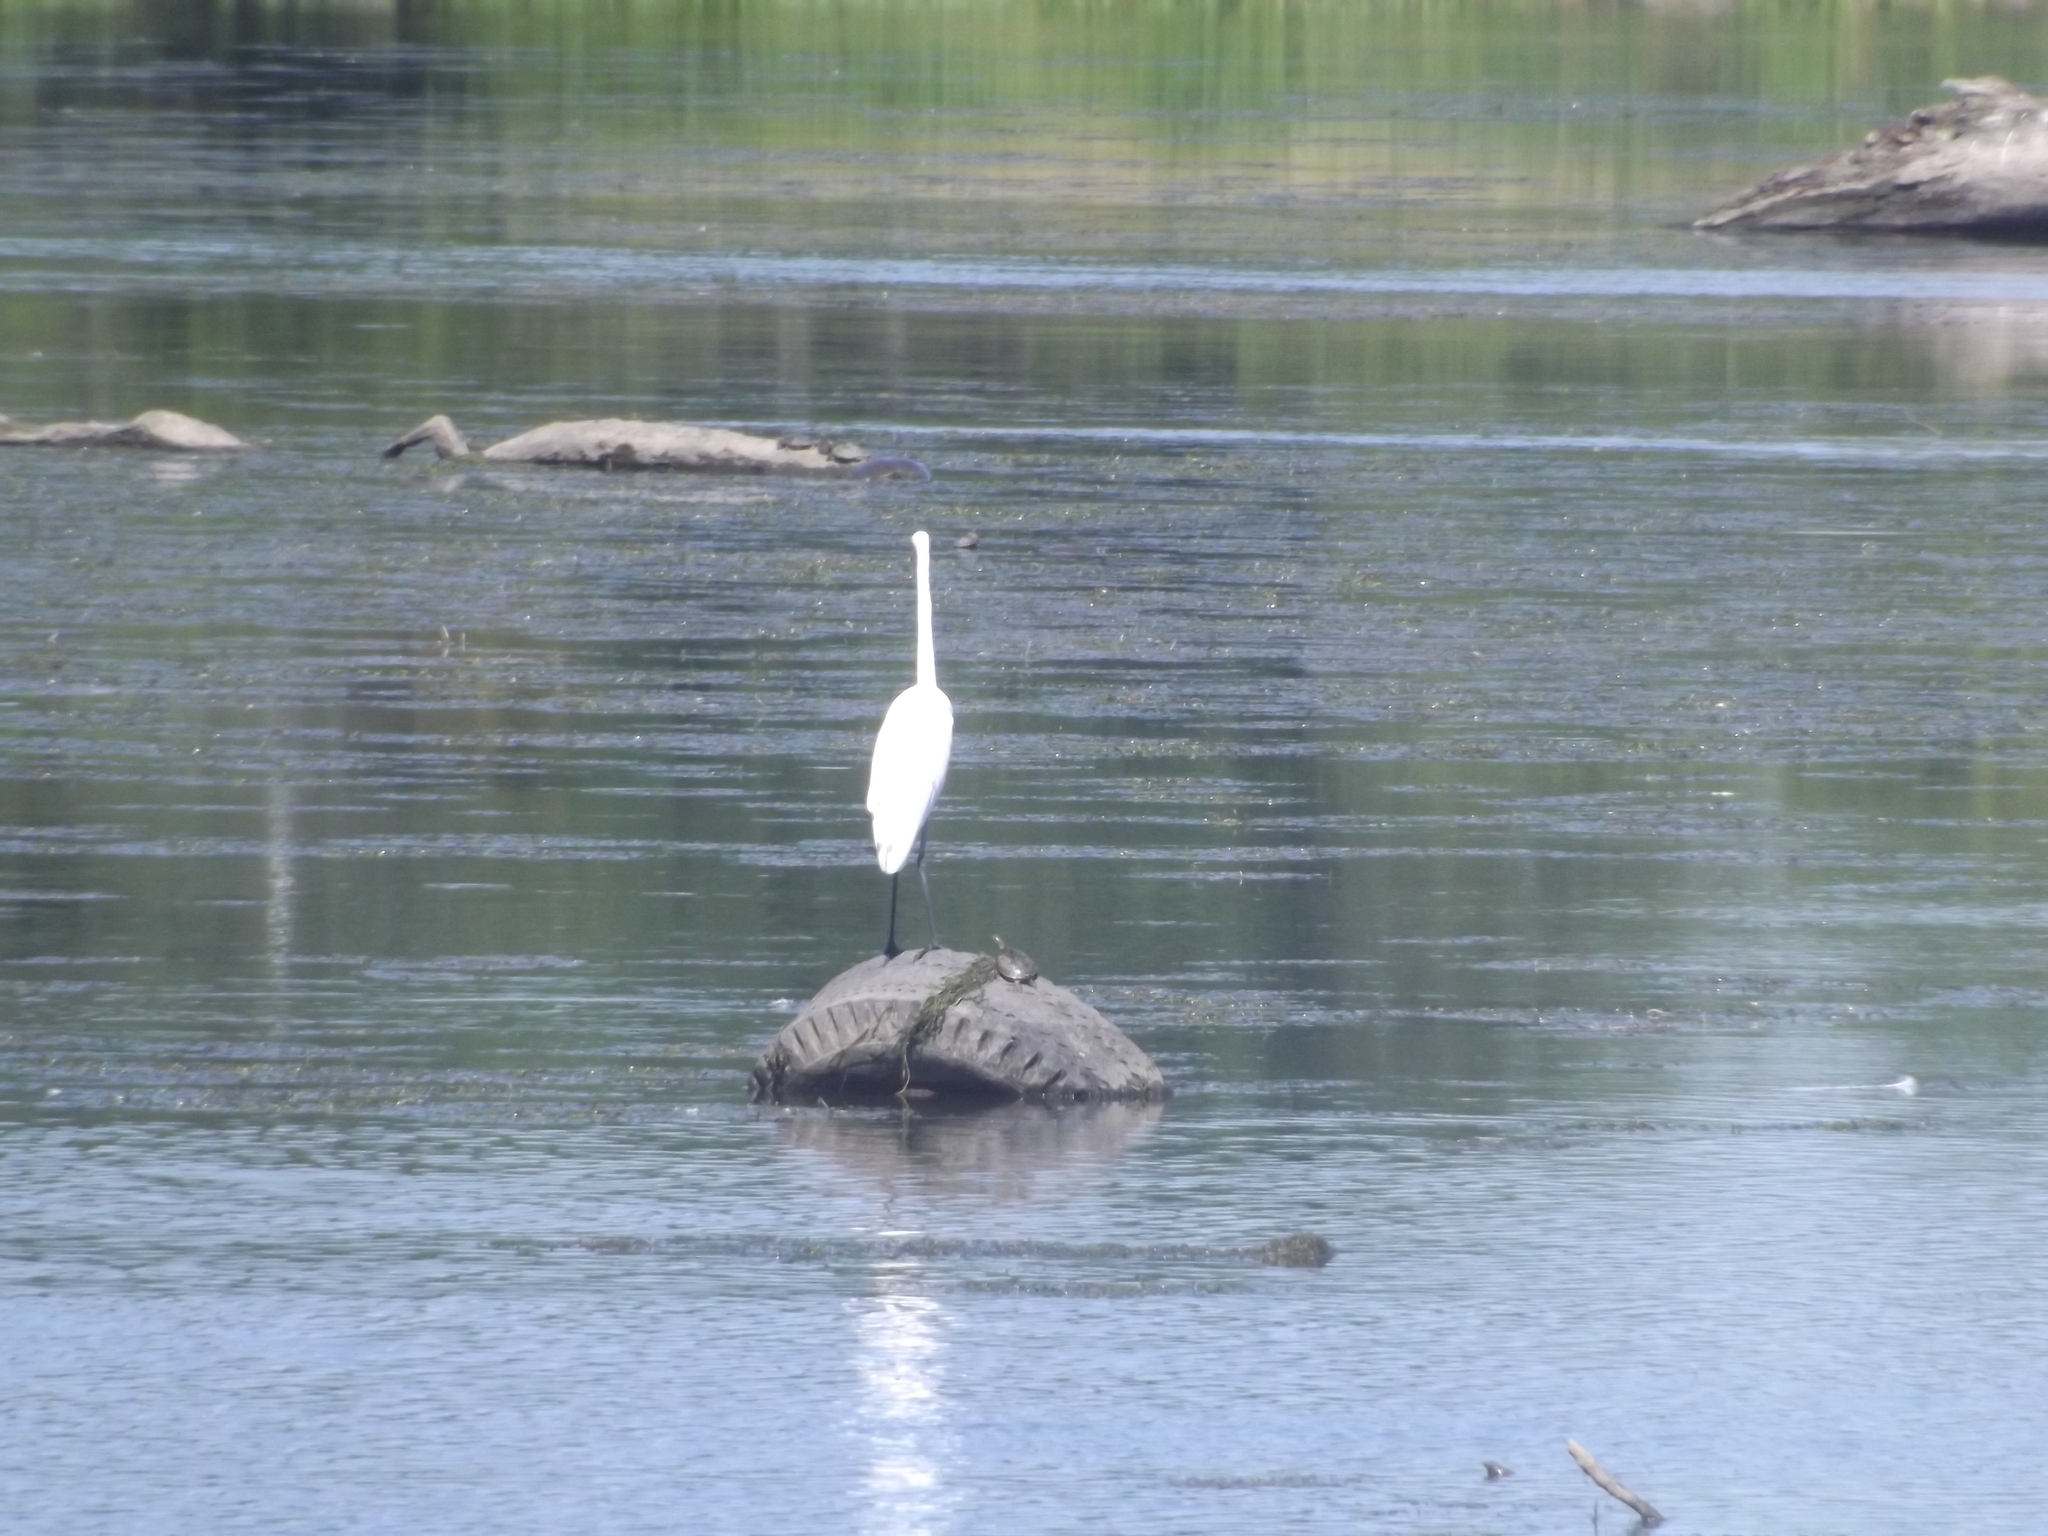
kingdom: Animalia
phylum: Chordata
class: Aves
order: Pelecaniformes
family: Ardeidae
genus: Ardea
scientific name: Ardea alba
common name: Great egret
